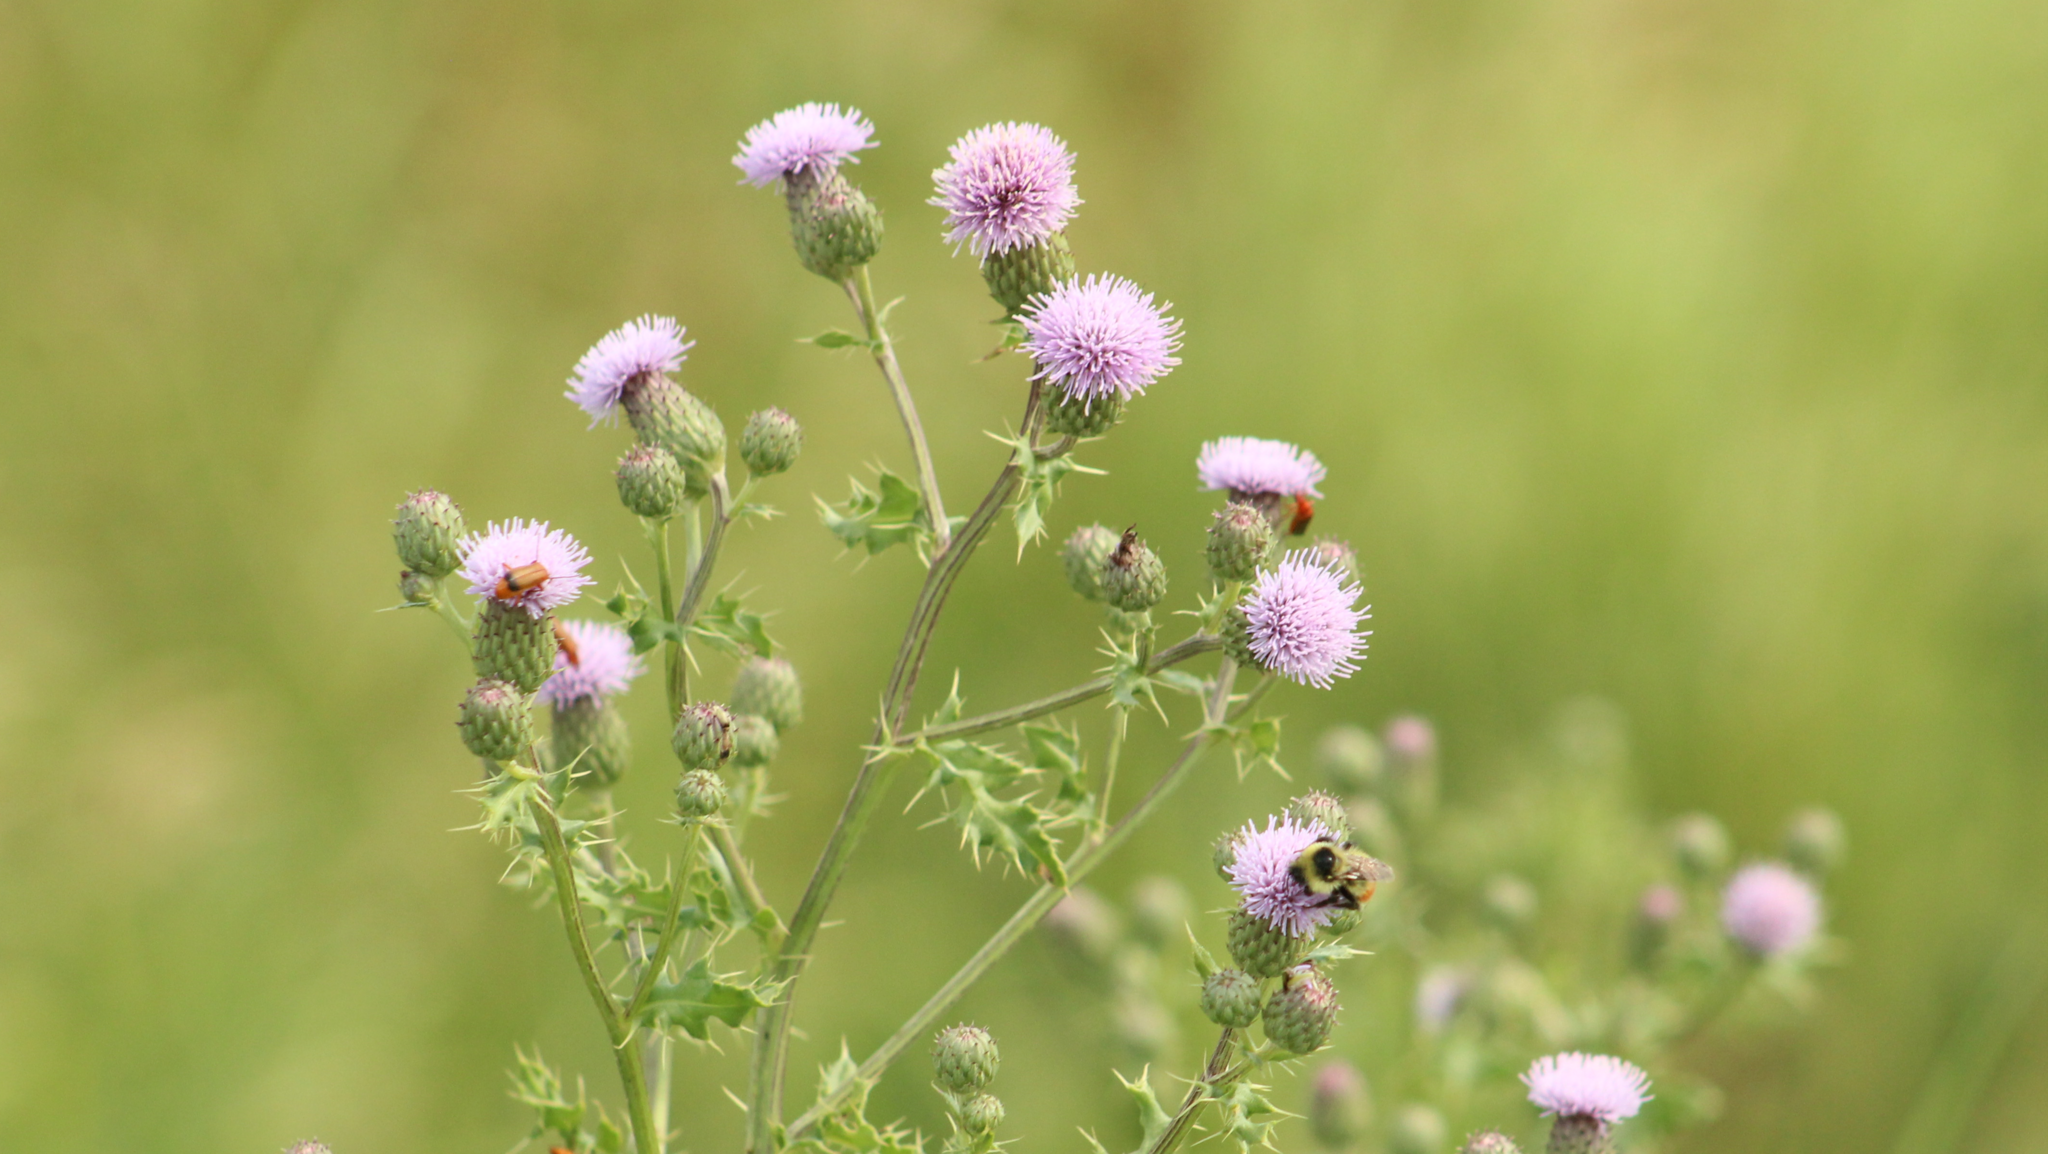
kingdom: Plantae
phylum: Tracheophyta
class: Magnoliopsida
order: Asterales
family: Asteraceae
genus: Cirsium
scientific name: Cirsium arvense
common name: Creeping thistle
